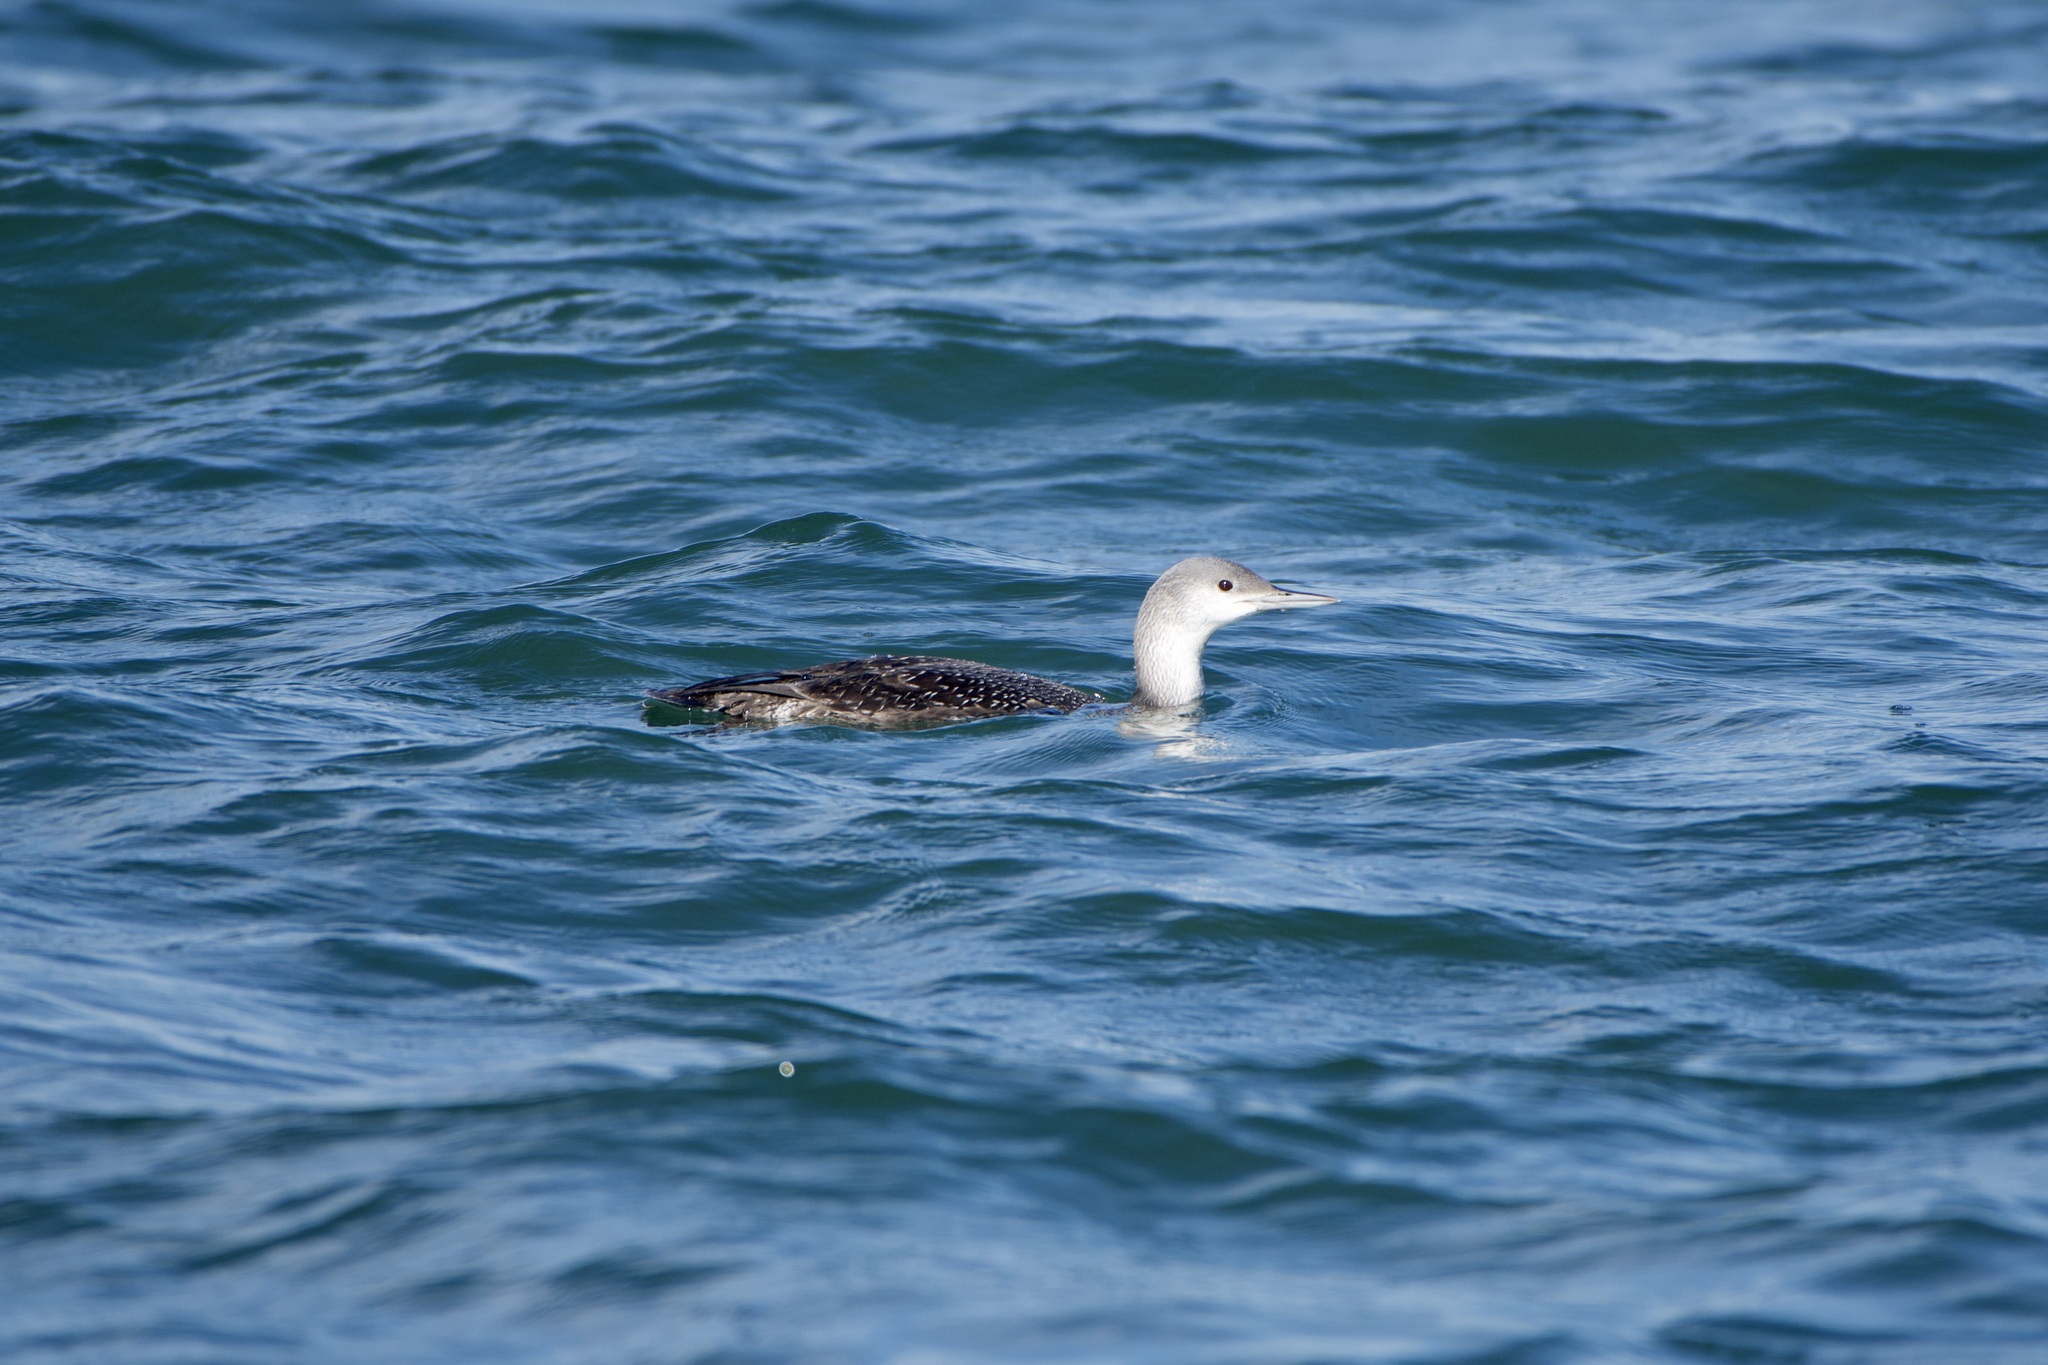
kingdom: Animalia
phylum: Chordata
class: Aves
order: Gaviiformes
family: Gaviidae
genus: Gavia
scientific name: Gavia stellata
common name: Red-throated loon
